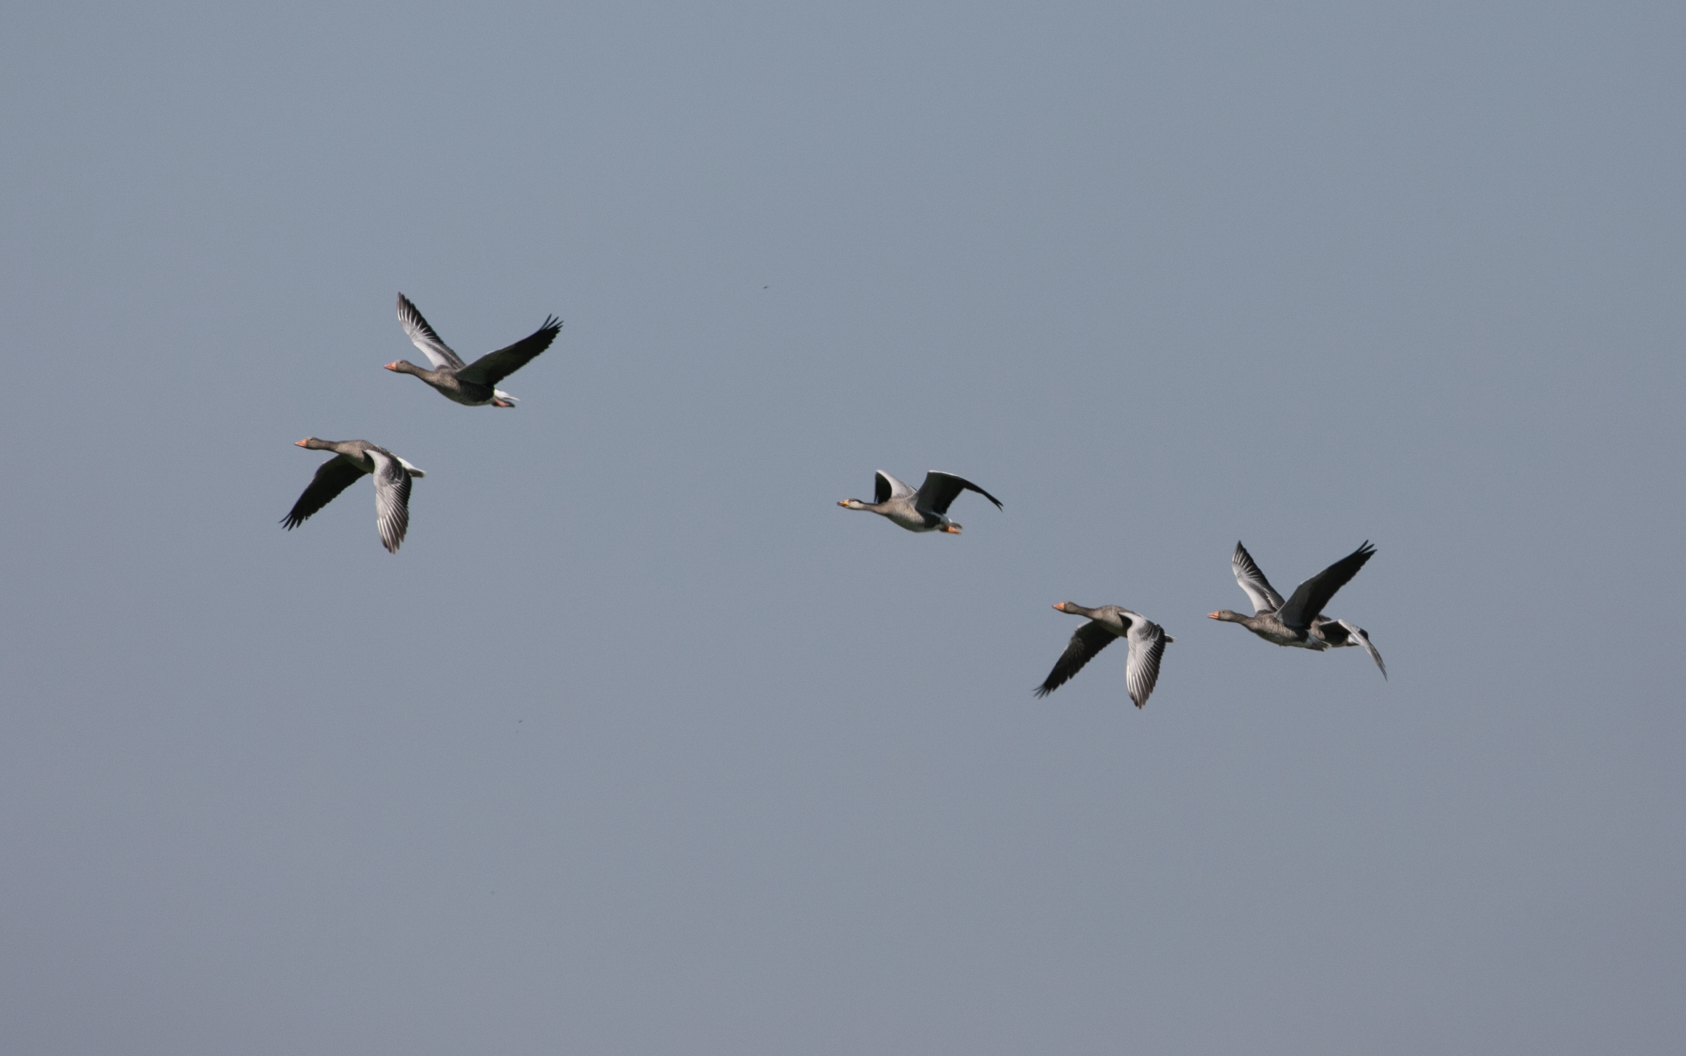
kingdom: Animalia
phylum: Chordata
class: Aves
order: Anseriformes
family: Anatidae
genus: Anser
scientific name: Anser anser
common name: Greylag goose
